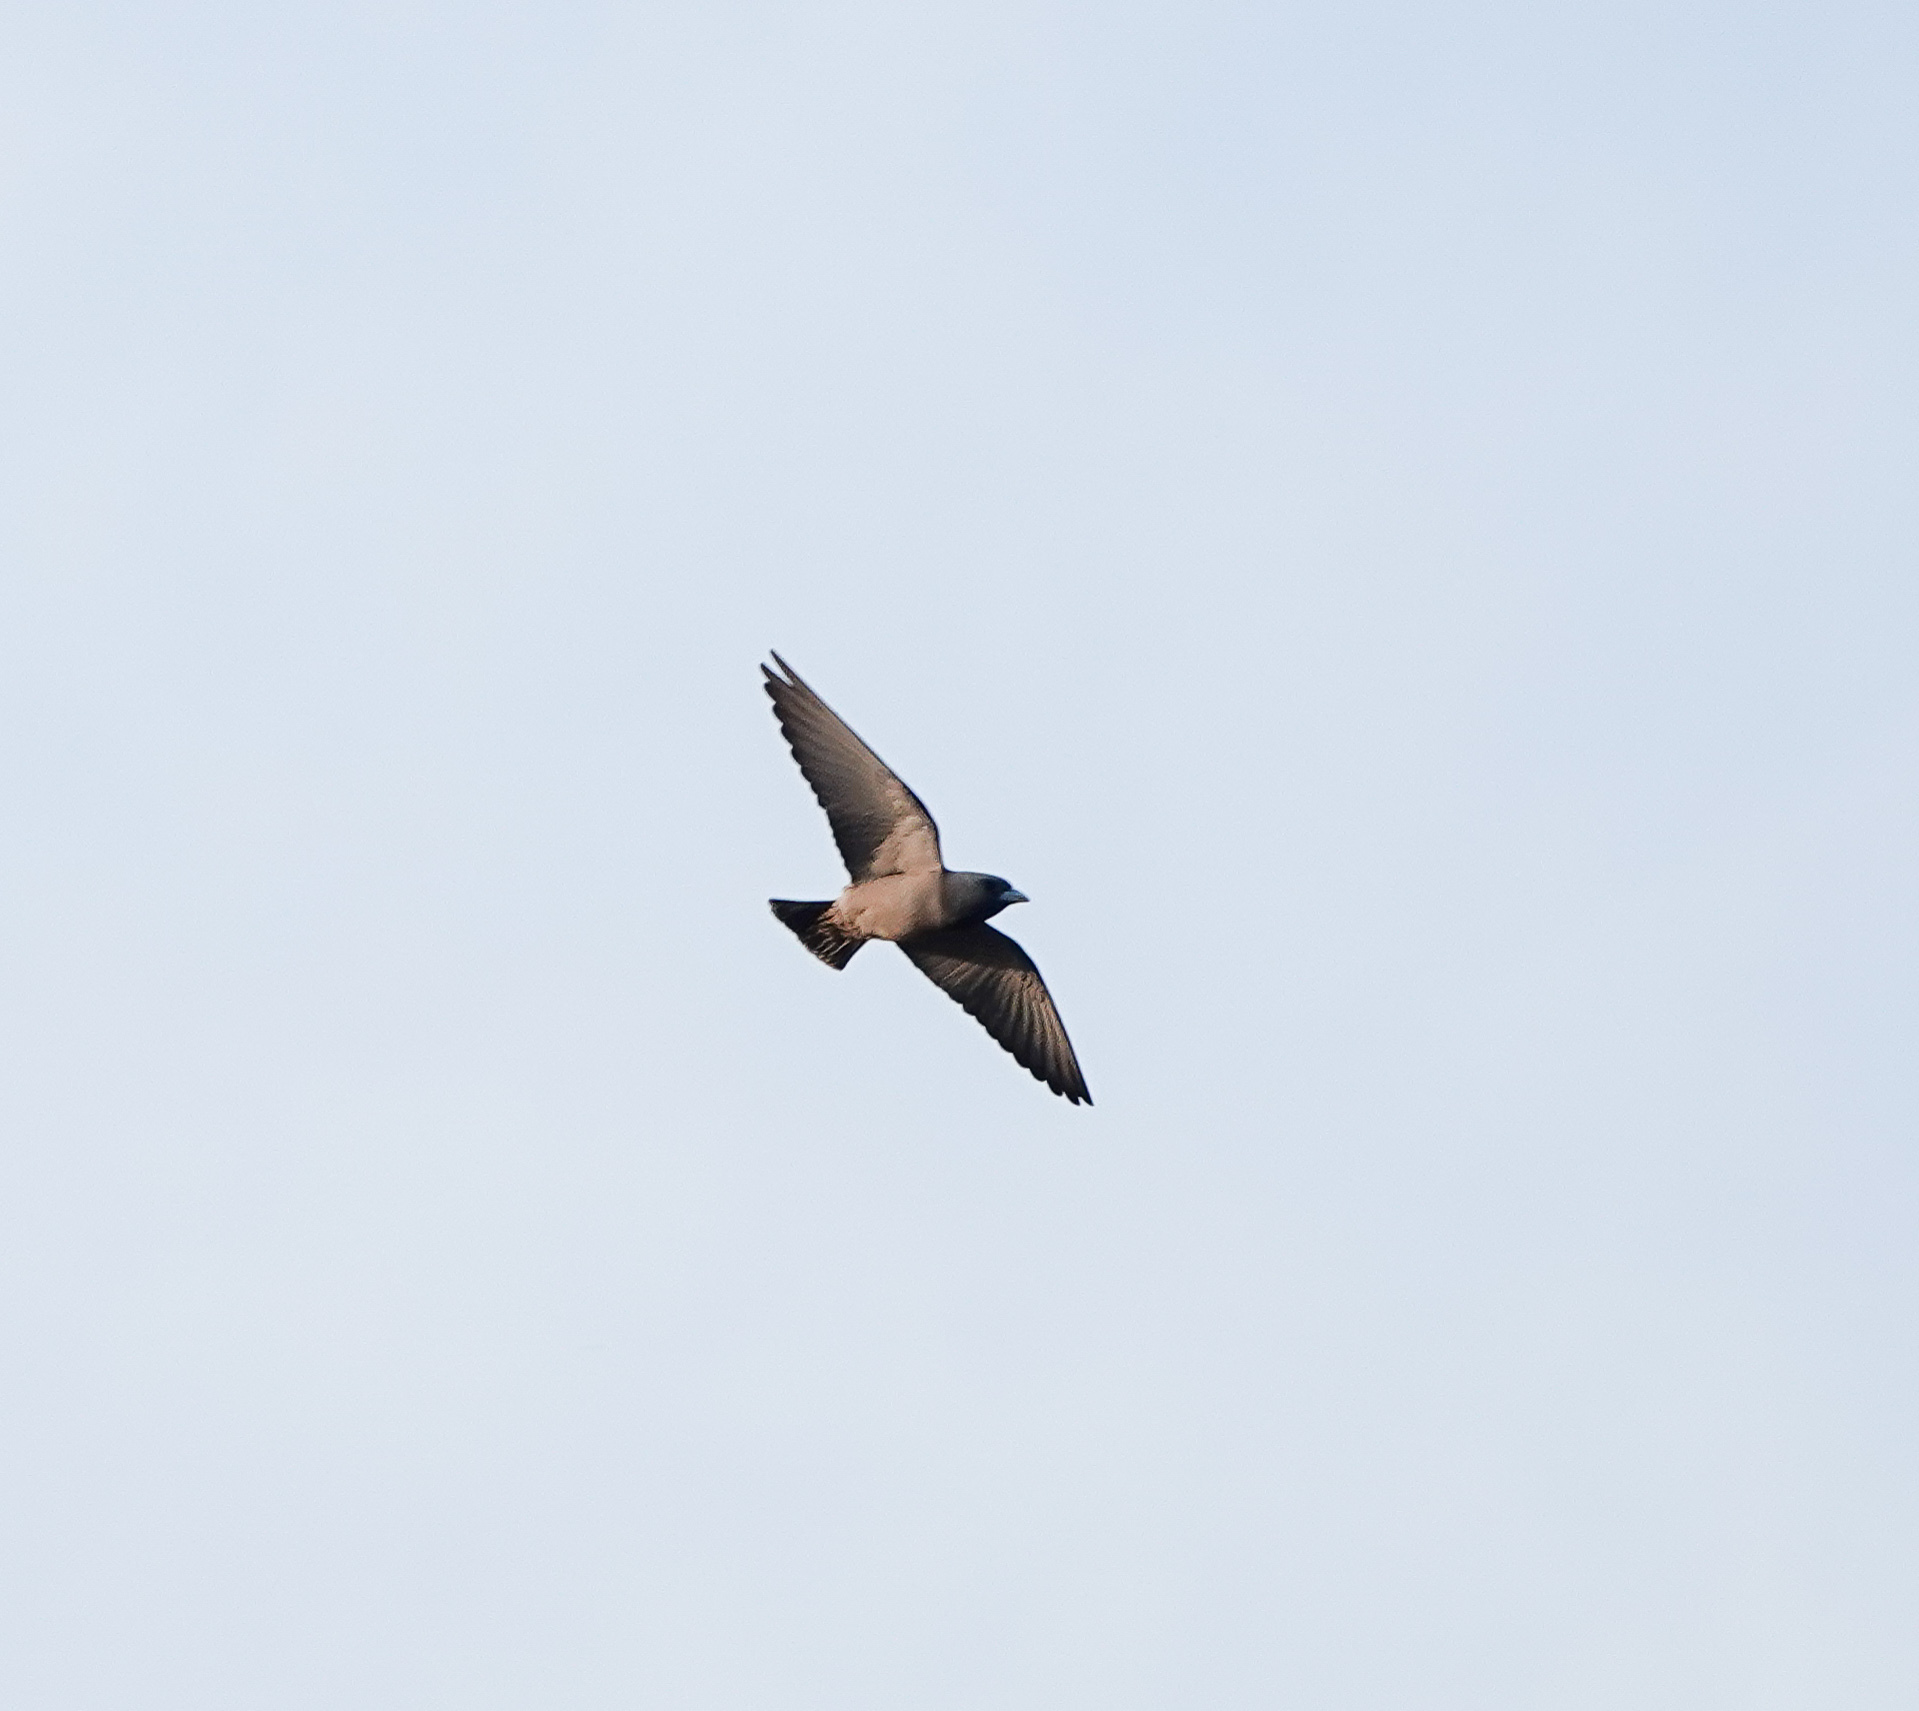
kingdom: Animalia
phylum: Chordata
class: Aves
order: Passeriformes
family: Artamidae
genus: Artamus
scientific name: Artamus fuscus
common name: Ashy woodswallow
